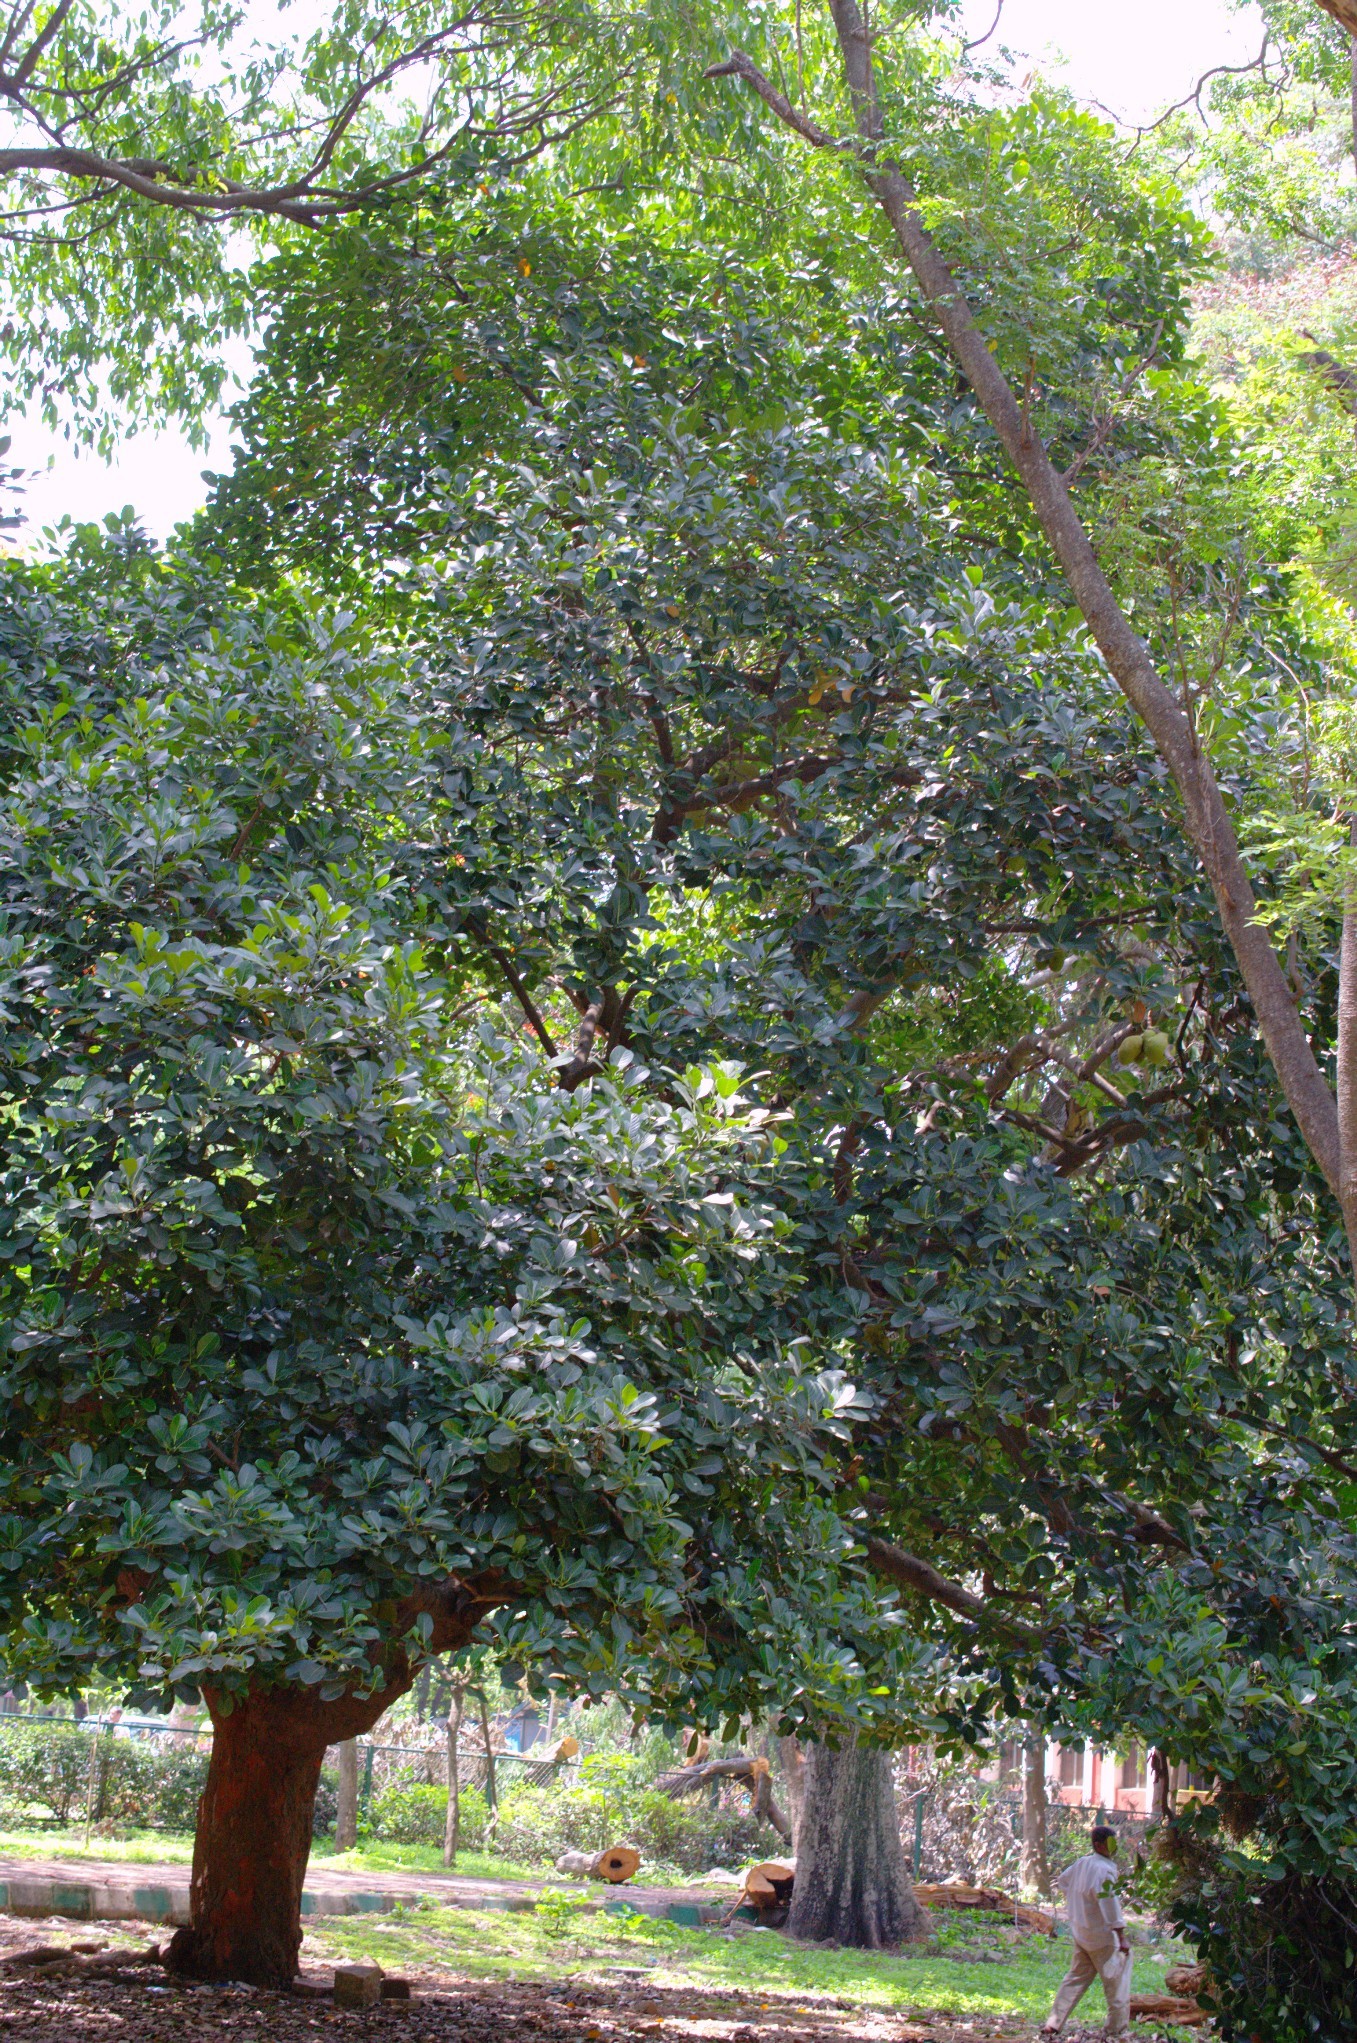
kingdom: Plantae
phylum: Tracheophyta
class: Magnoliopsida
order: Rosales
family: Moraceae
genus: Artocarpus
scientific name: Artocarpus heterophyllus
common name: Jackfruit
